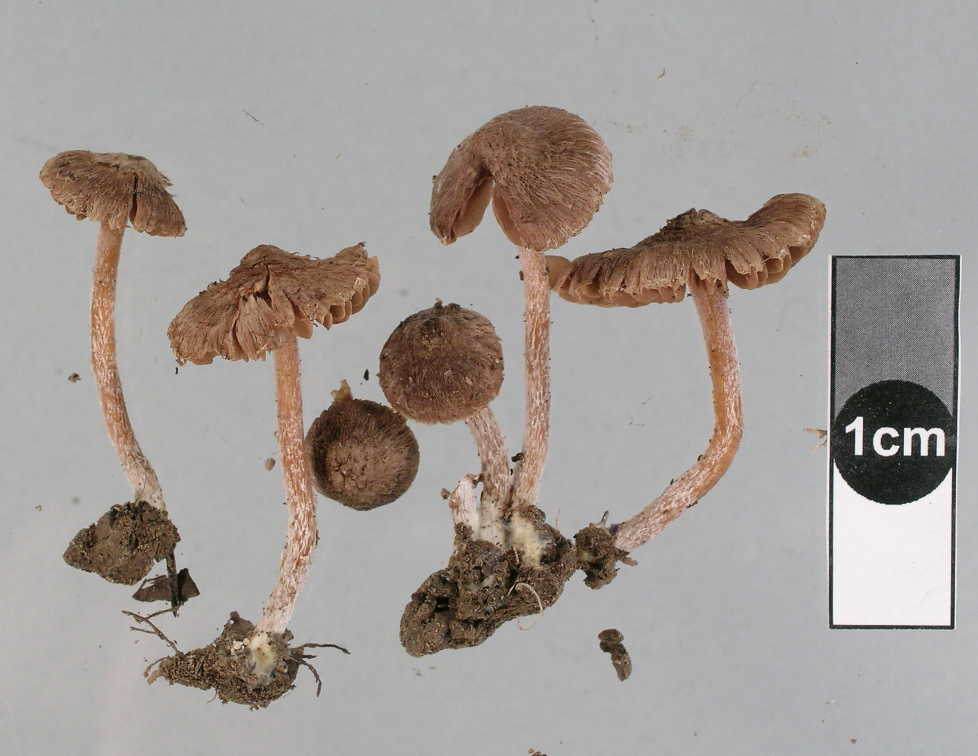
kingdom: Fungi
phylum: Basidiomycota
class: Agaricomycetes
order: Agaricales
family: Inocybaceae
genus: Inocybe
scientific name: Inocybe serratoides
